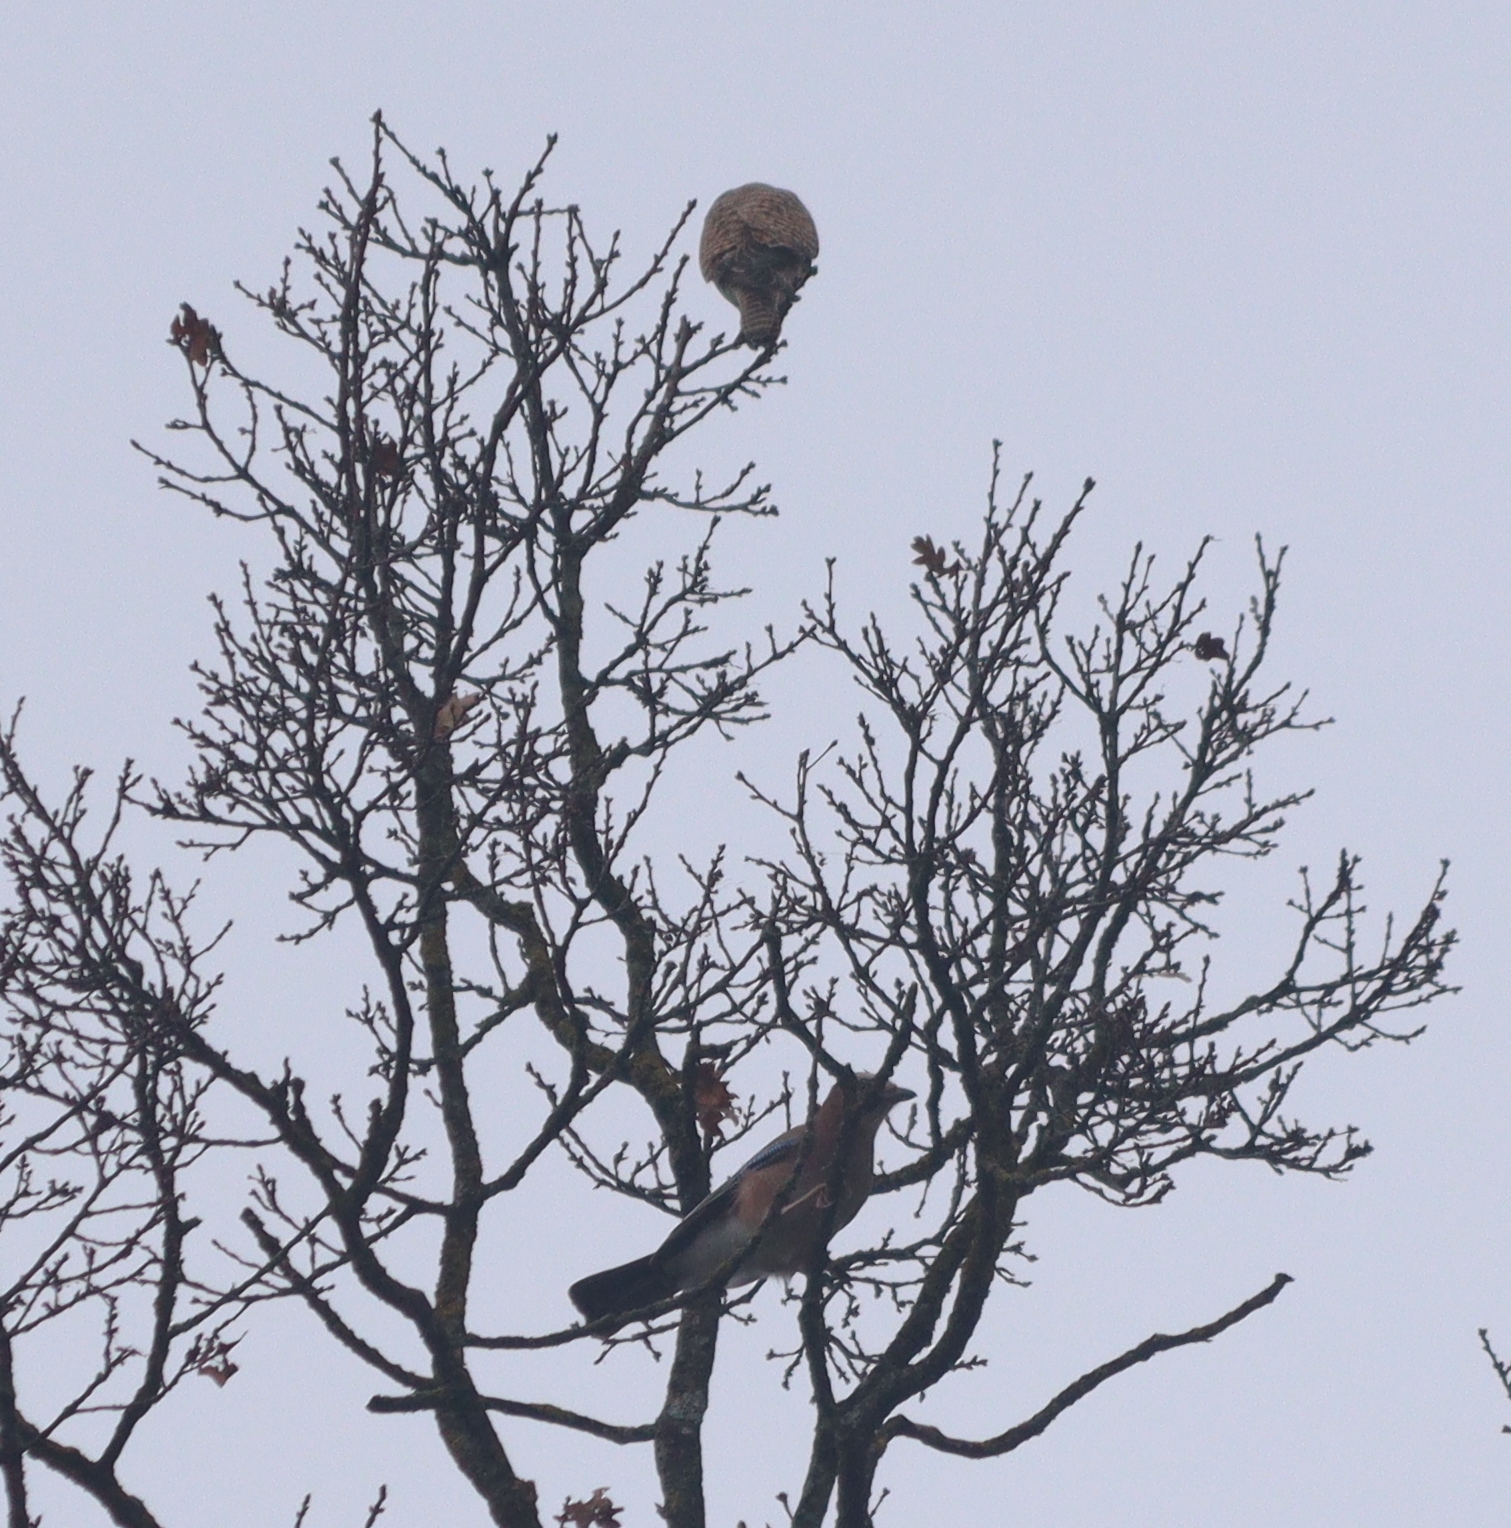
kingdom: Animalia
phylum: Chordata
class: Aves
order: Passeriformes
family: Corvidae
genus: Garrulus
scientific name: Garrulus glandarius
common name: Eurasian jay
